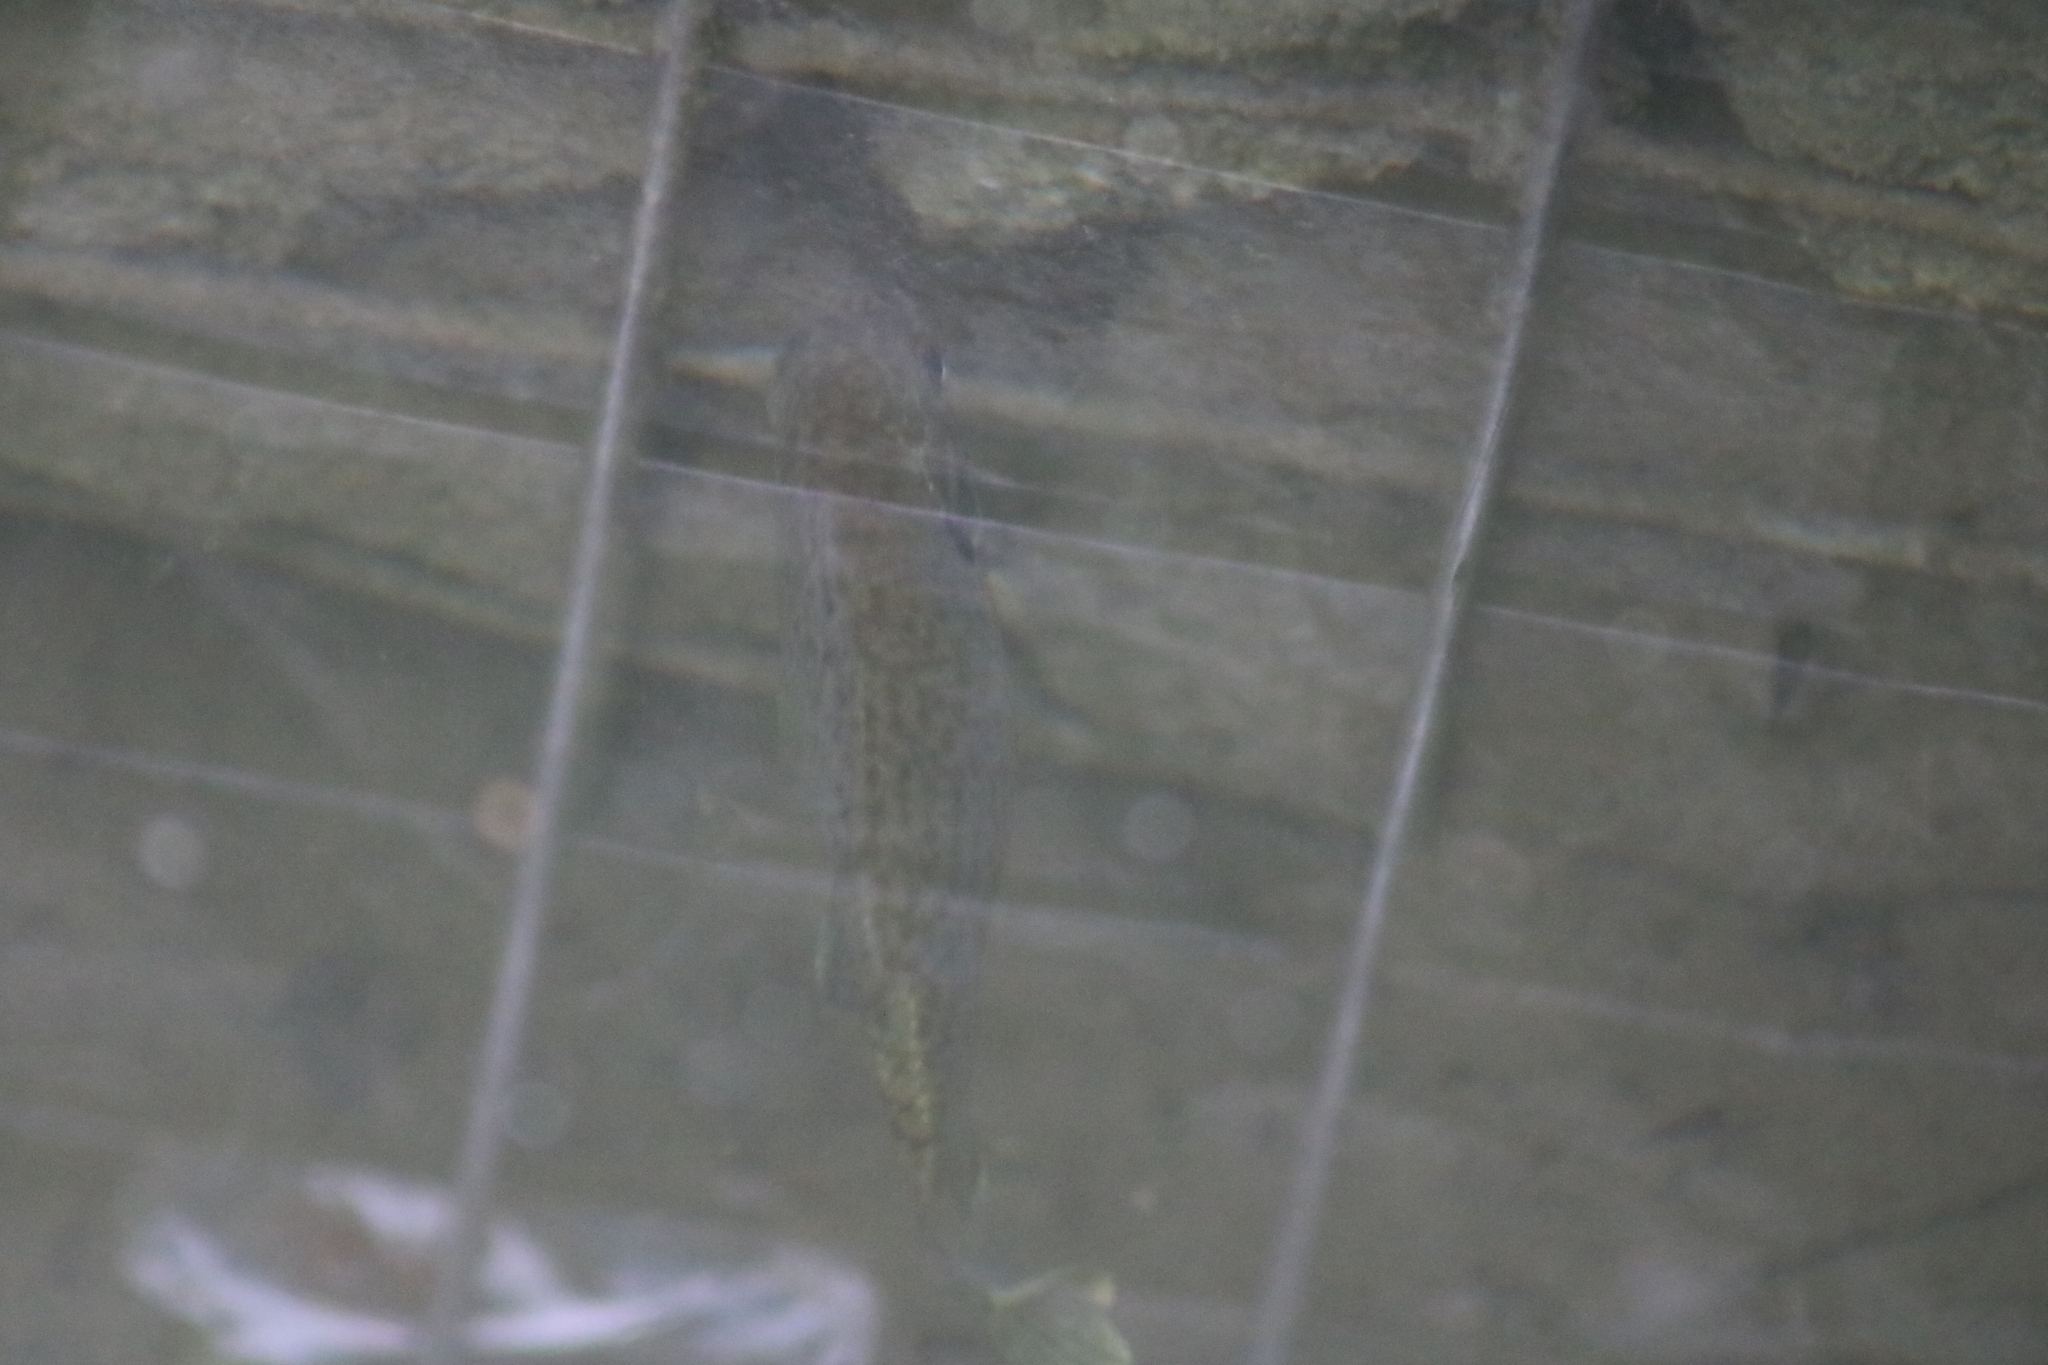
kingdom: Animalia
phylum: Chordata
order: Perciformes
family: Centrarchidae
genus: Lepomis
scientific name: Lepomis gibbosus
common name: Pumpkinseed
